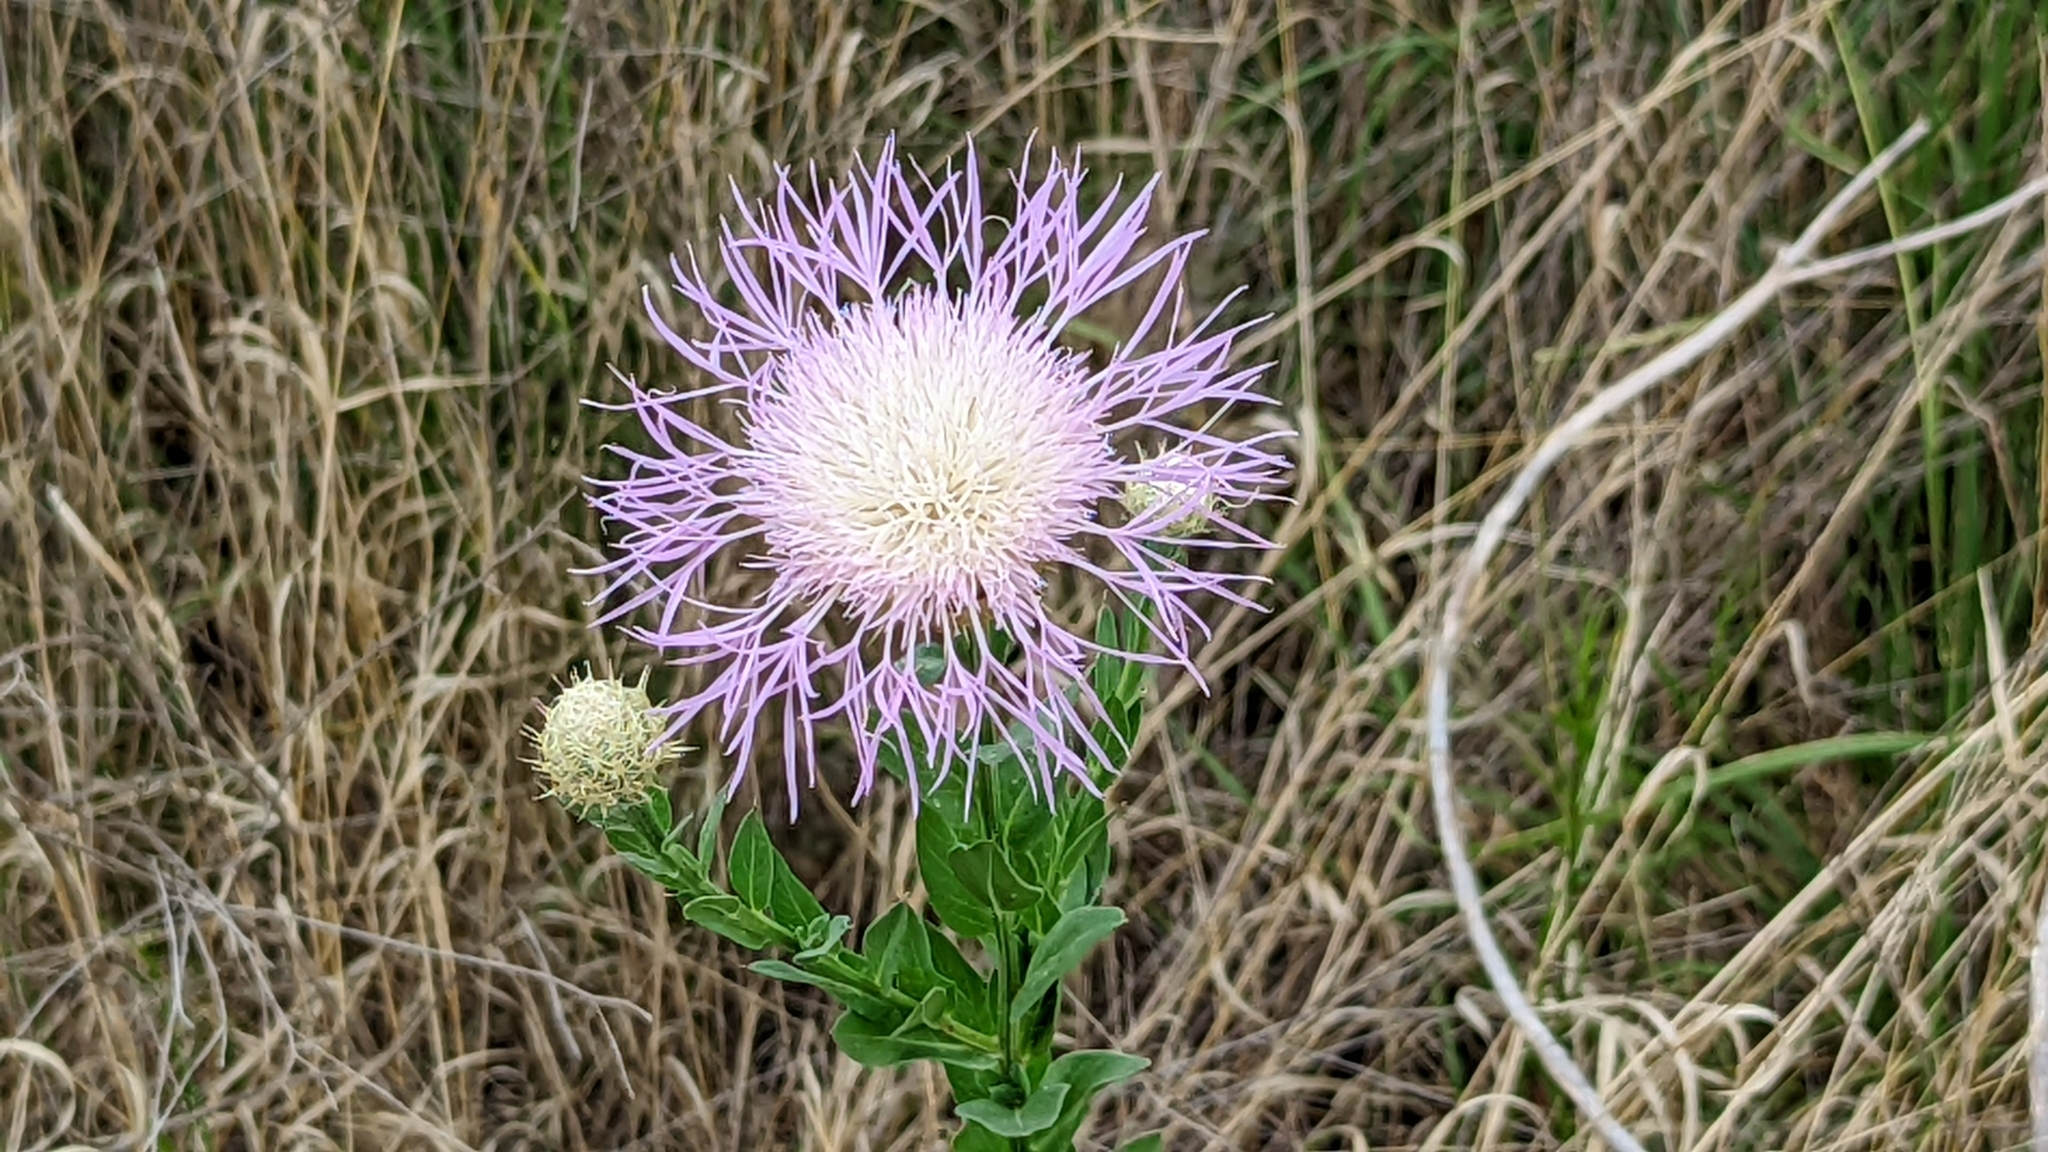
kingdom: Plantae
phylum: Tracheophyta
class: Magnoliopsida
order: Asterales
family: Asteraceae
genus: Plectocephalus
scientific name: Plectocephalus americanus
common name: American basket-flower
